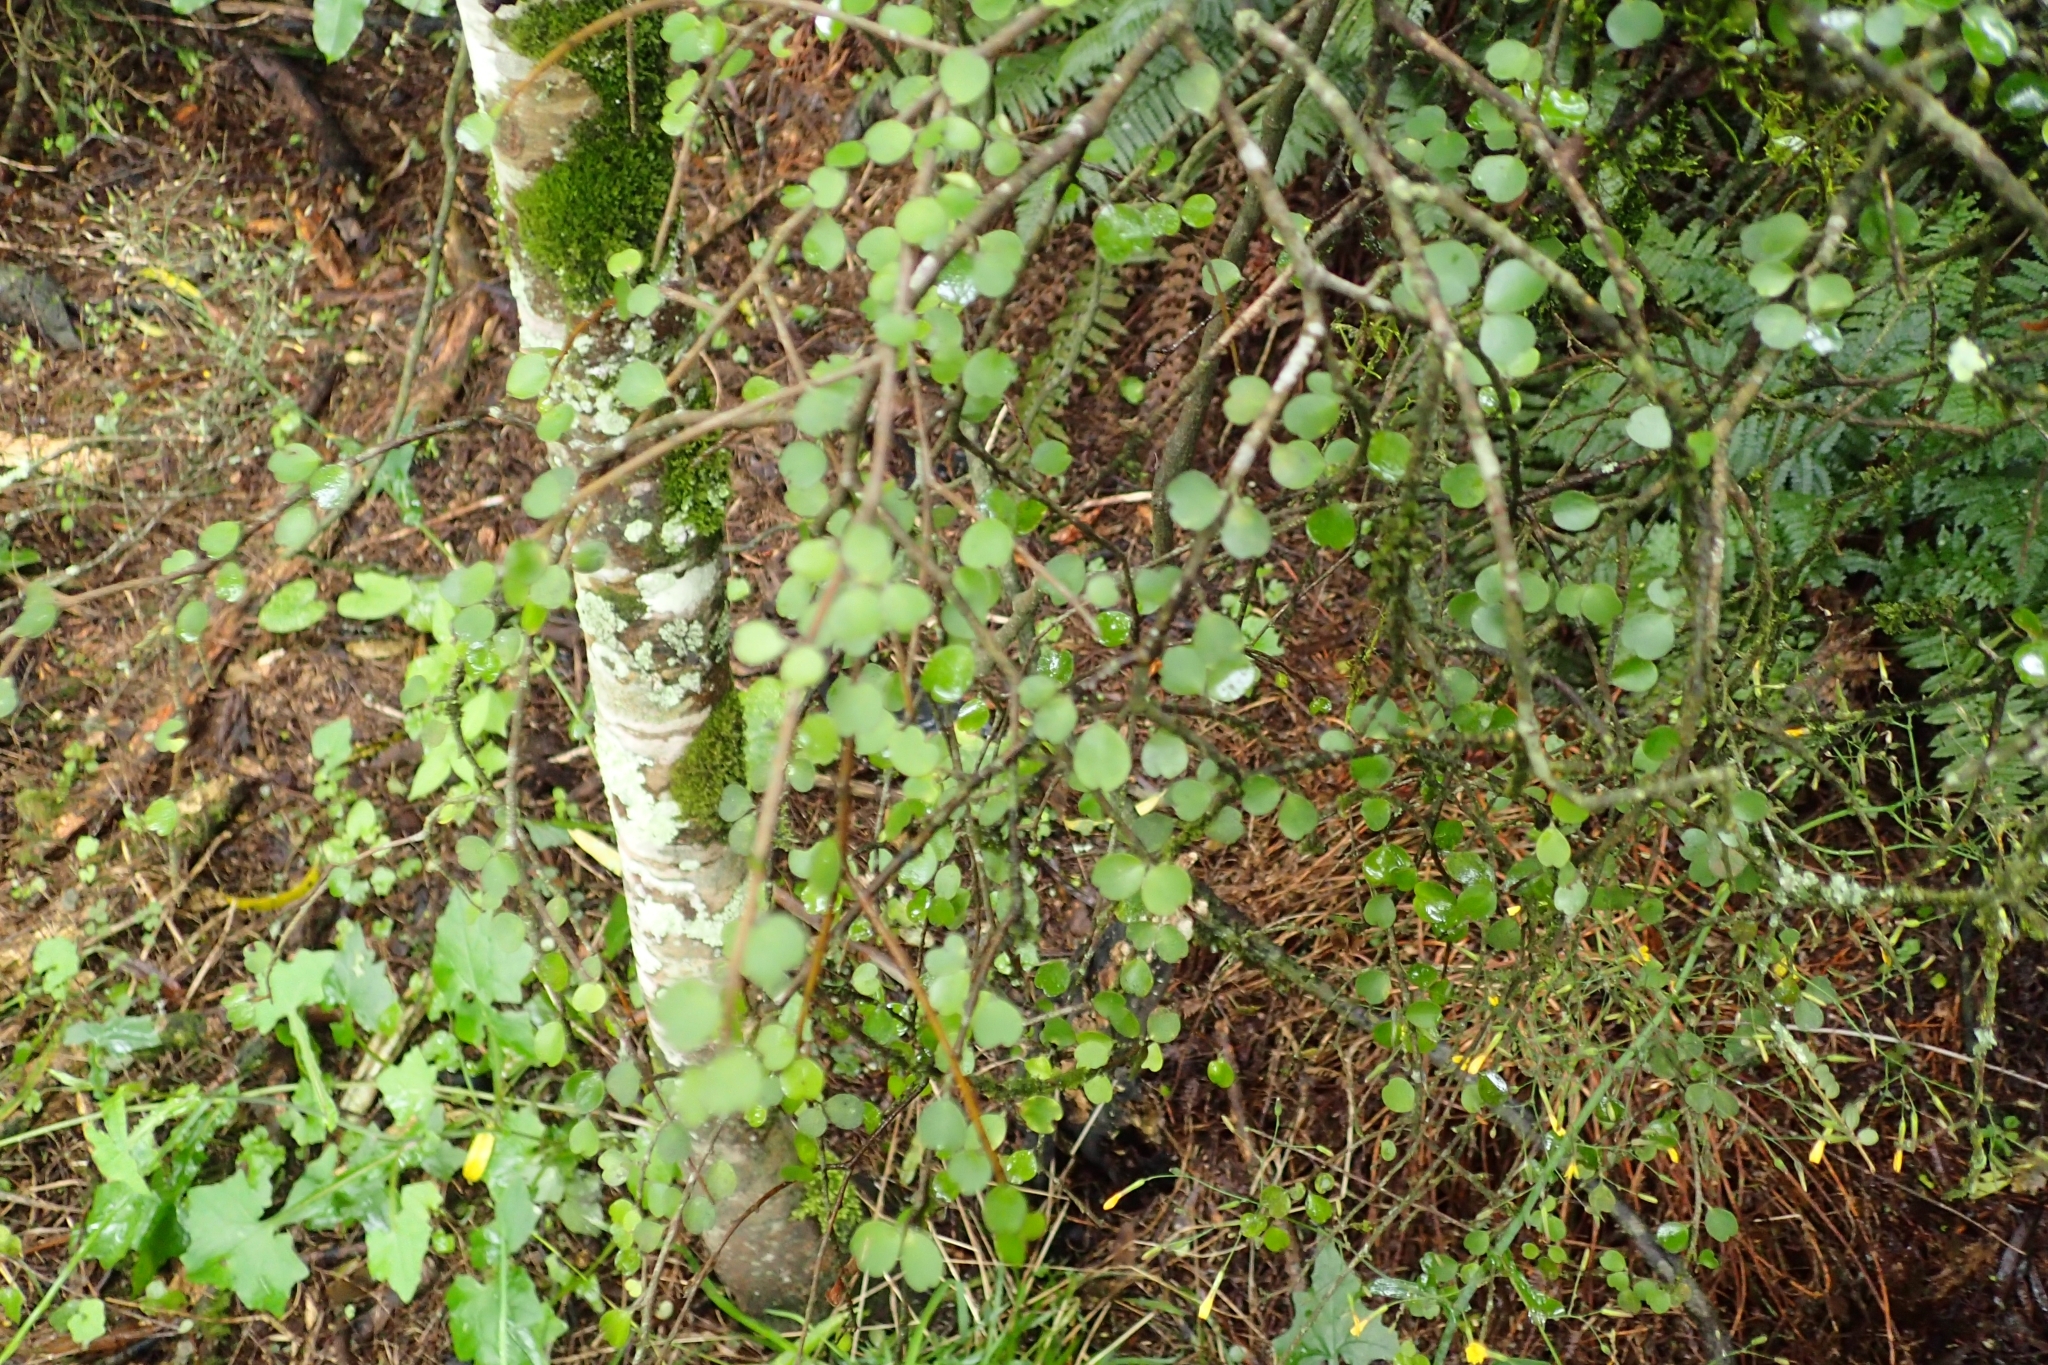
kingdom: Plantae
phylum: Tracheophyta
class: Magnoliopsida
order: Ericales
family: Primulaceae
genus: Myrsine
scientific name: Myrsine divaricata
